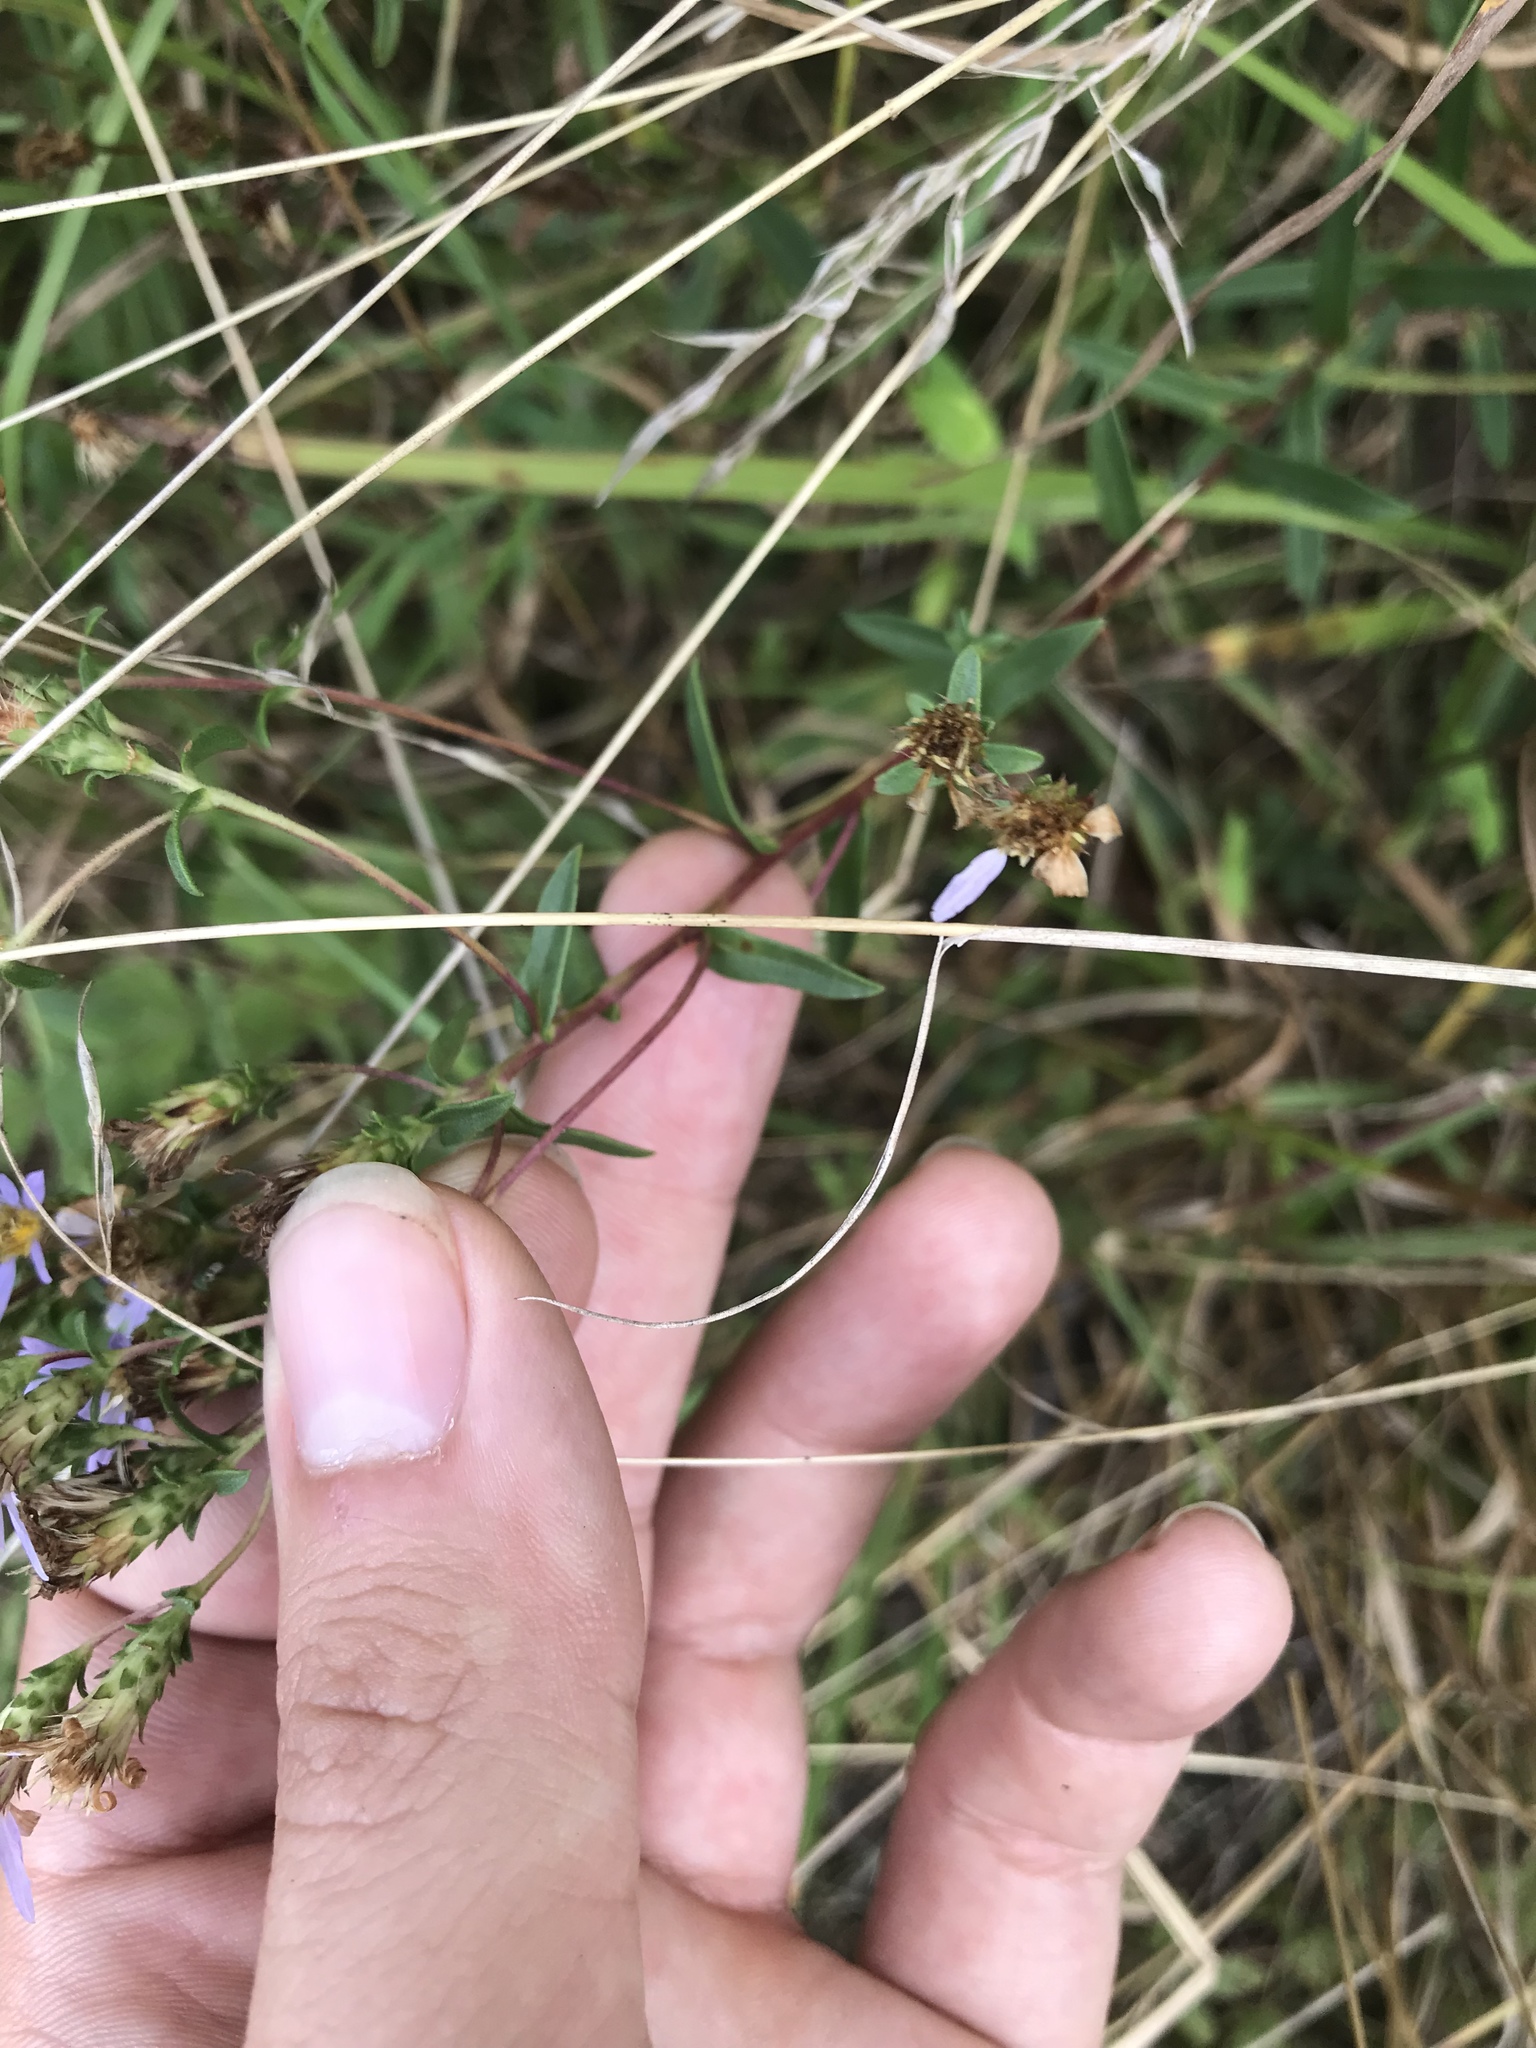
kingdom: Plantae
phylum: Tracheophyta
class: Magnoliopsida
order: Asterales
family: Asteraceae
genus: Eurybia
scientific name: Eurybia compacta
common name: Slender aster
